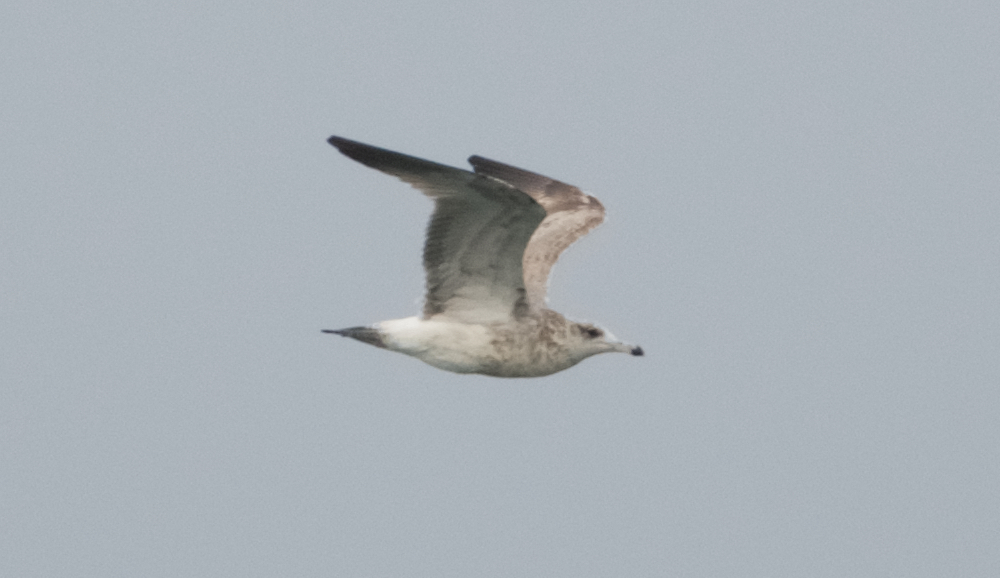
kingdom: Animalia
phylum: Chordata
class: Aves
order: Charadriiformes
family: Laridae
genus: Larus
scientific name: Larus californicus
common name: California gull
